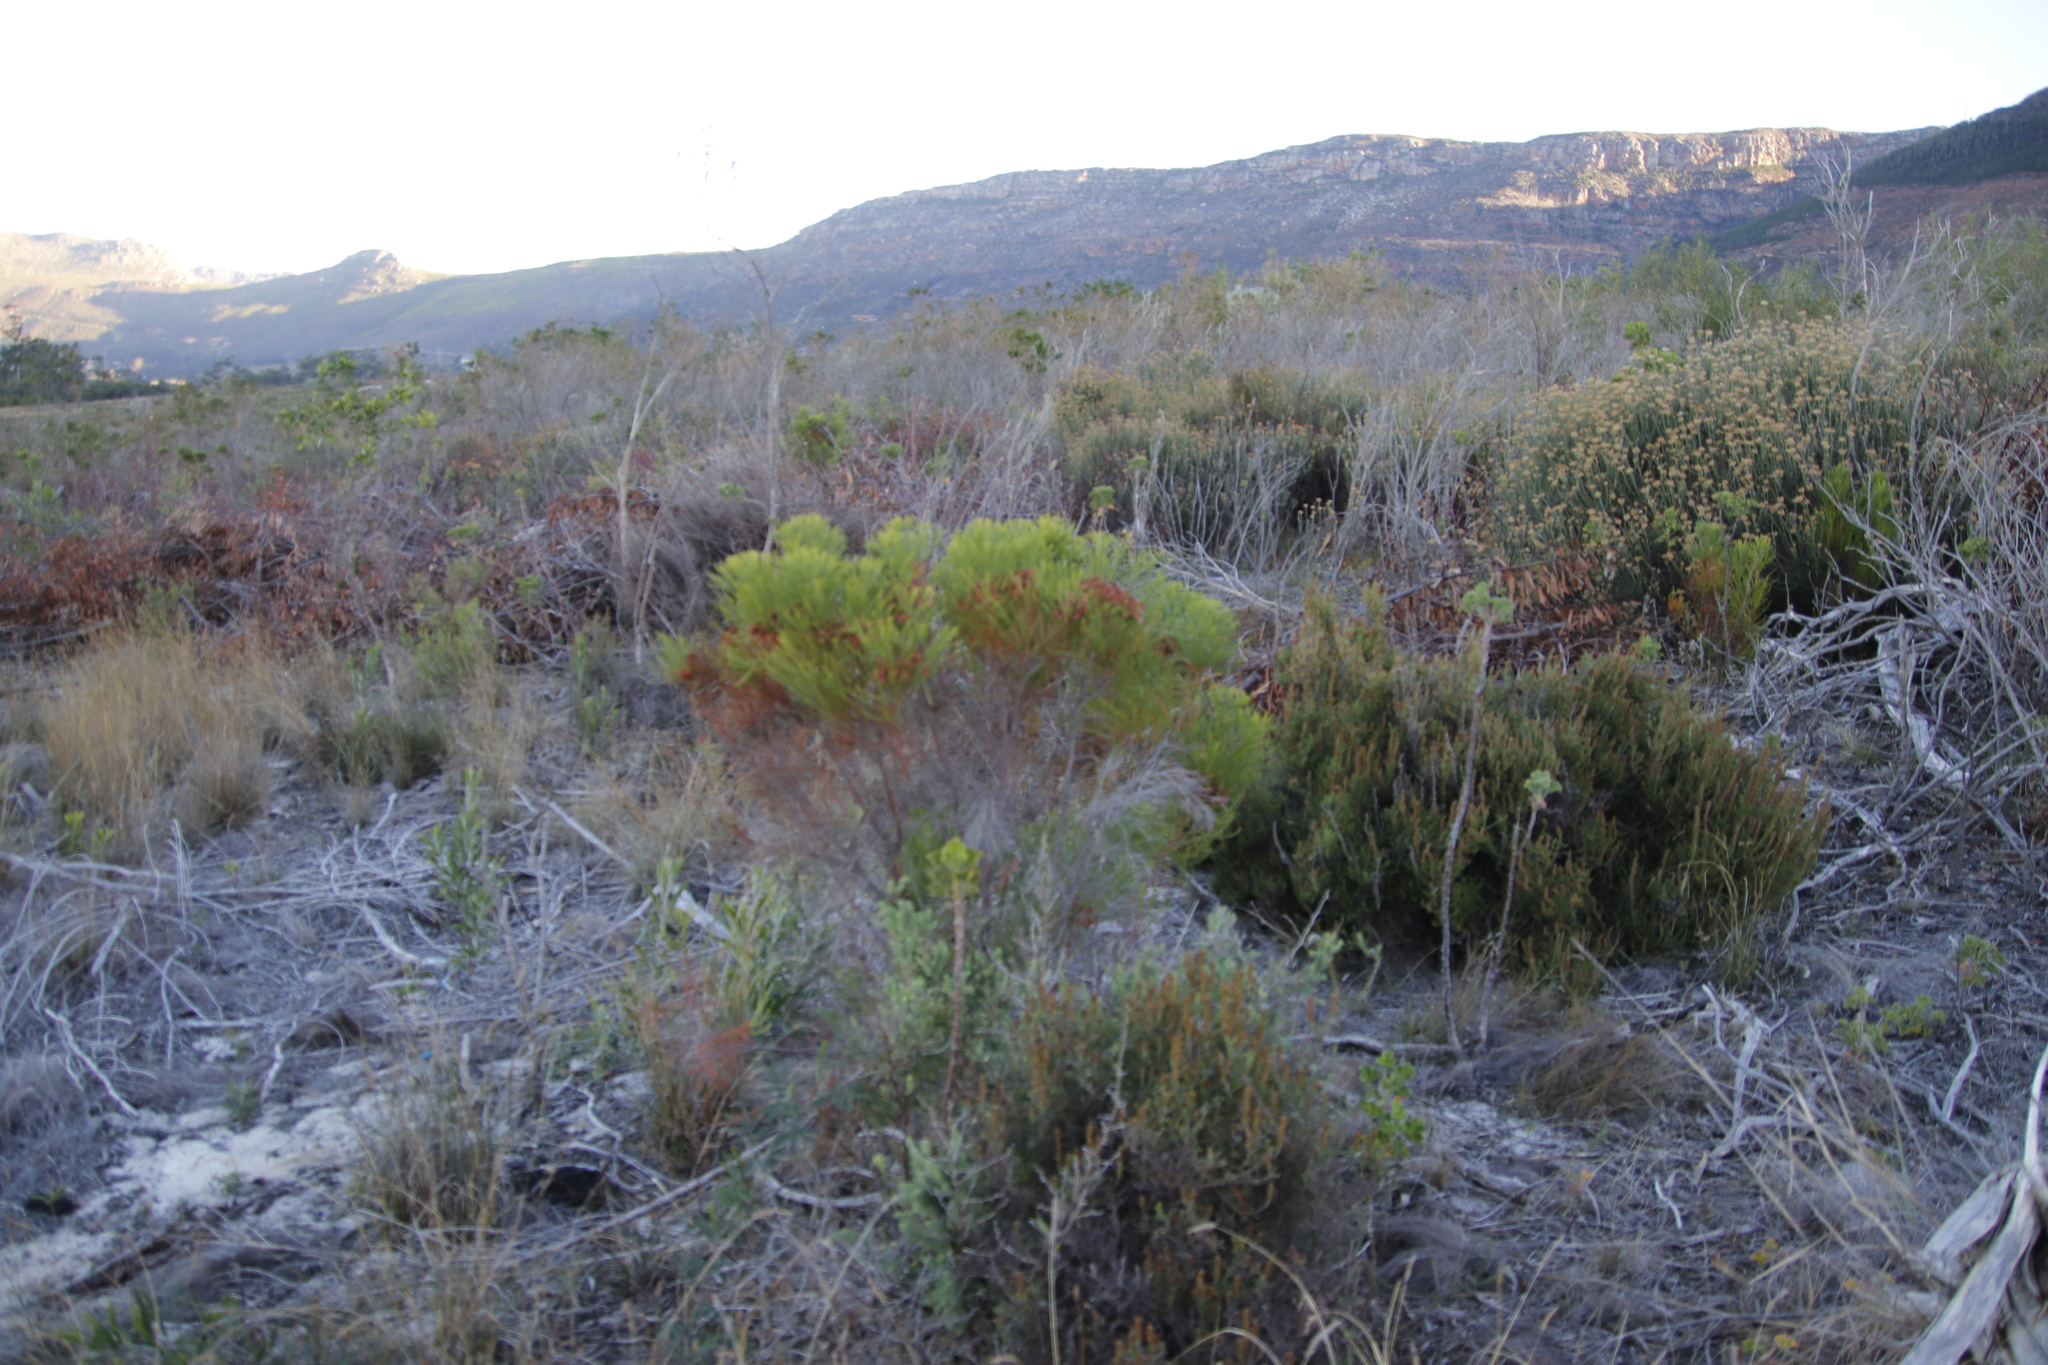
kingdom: Plantae
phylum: Tracheophyta
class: Magnoliopsida
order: Bruniales
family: Bruniaceae
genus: Berzelia
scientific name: Berzelia lanuginosa
